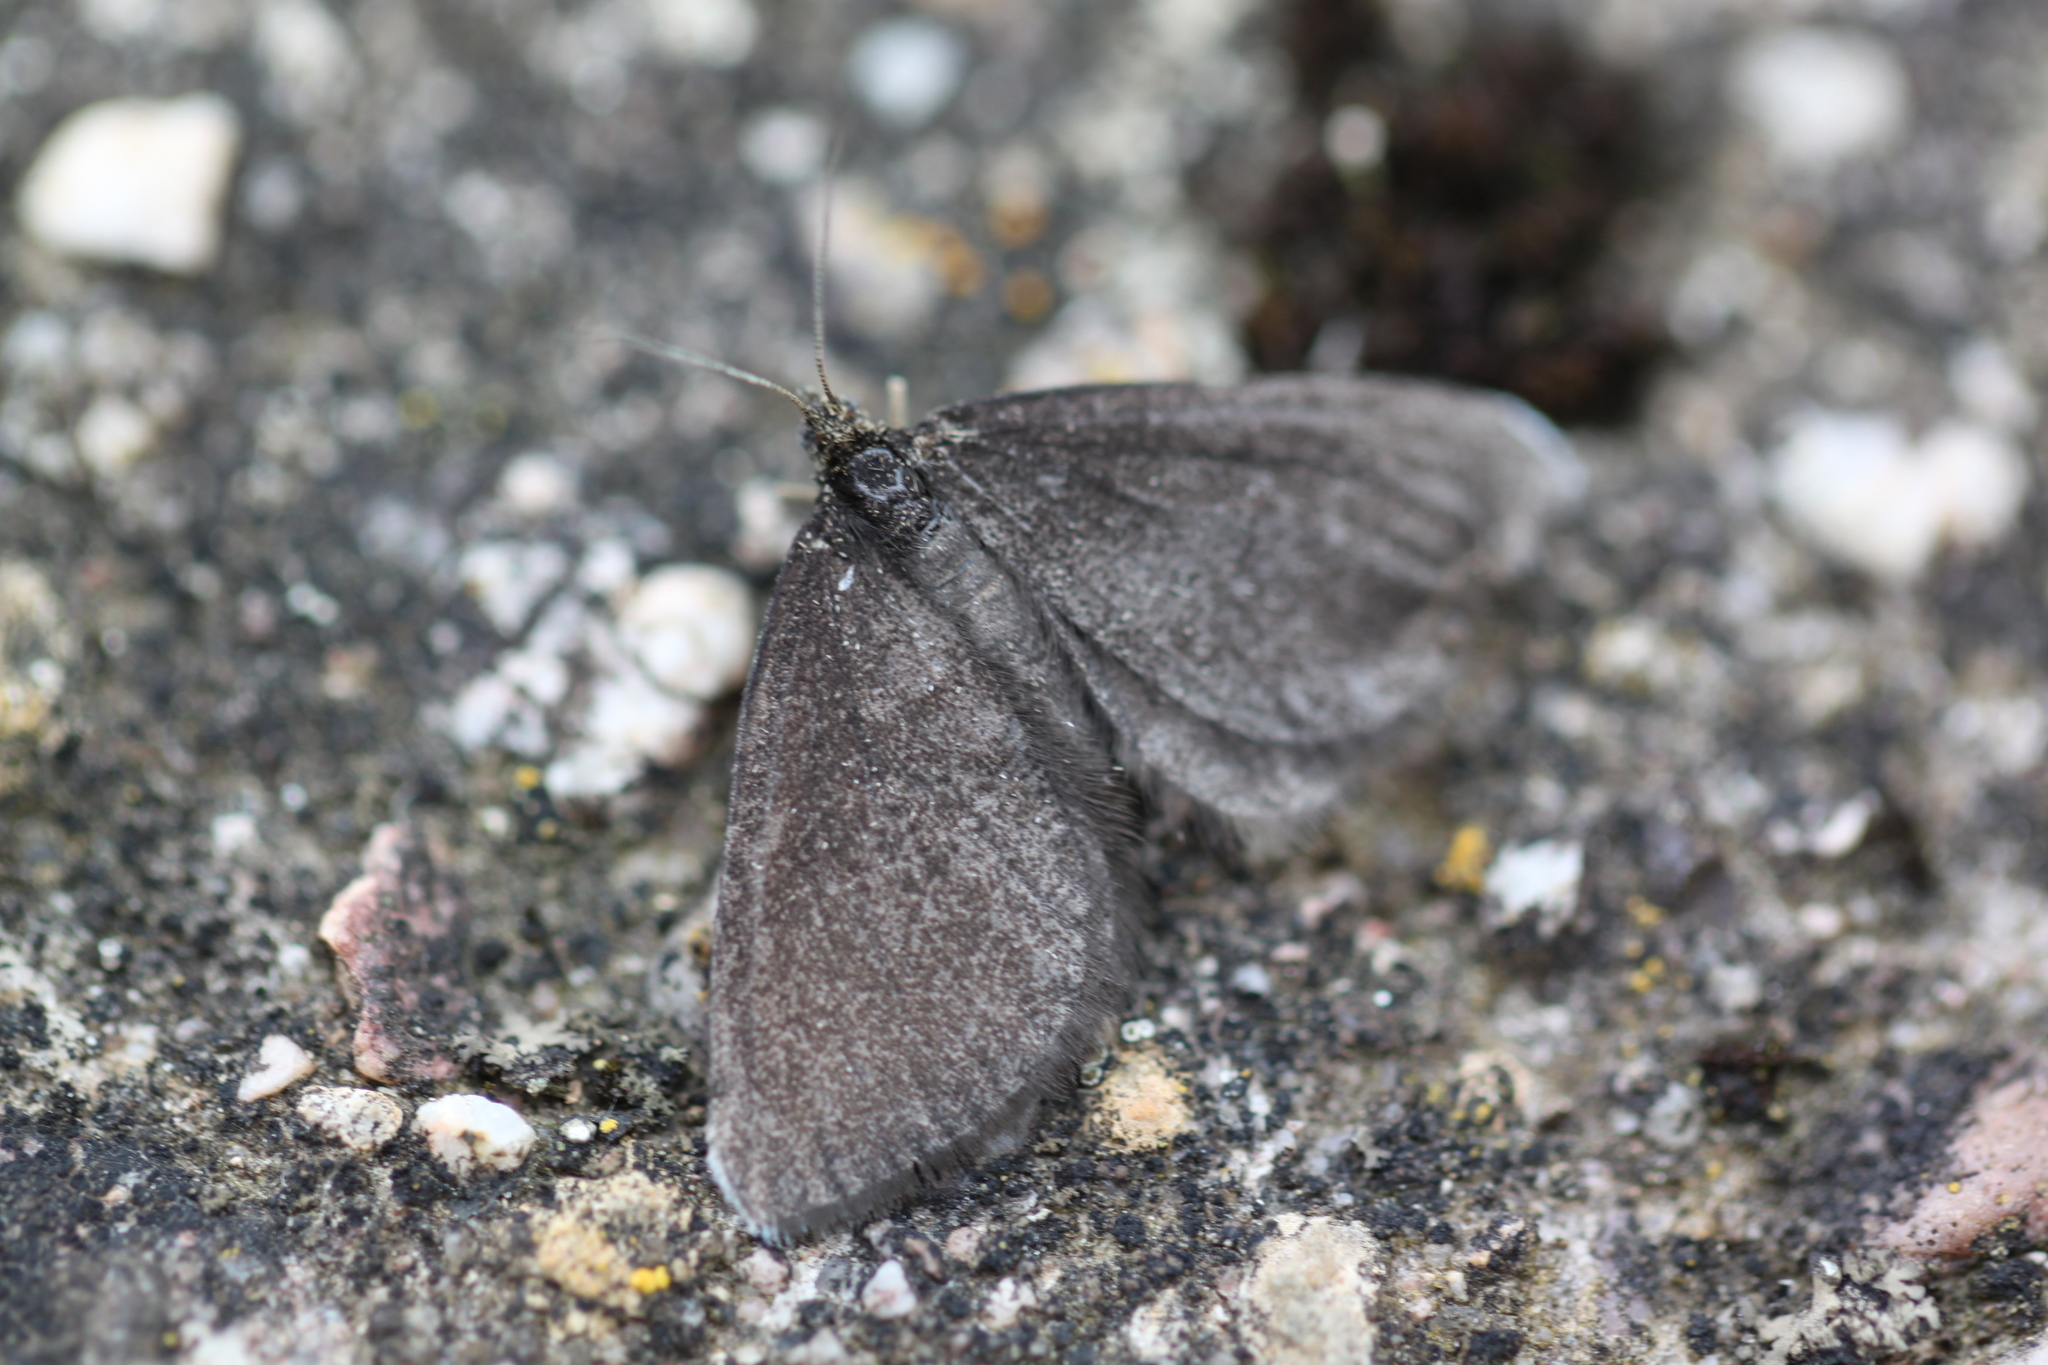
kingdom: Animalia
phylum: Arthropoda
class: Insecta
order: Lepidoptera
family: Geometridae
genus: Odezia
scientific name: Odezia atrata
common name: Chimney sweeper
